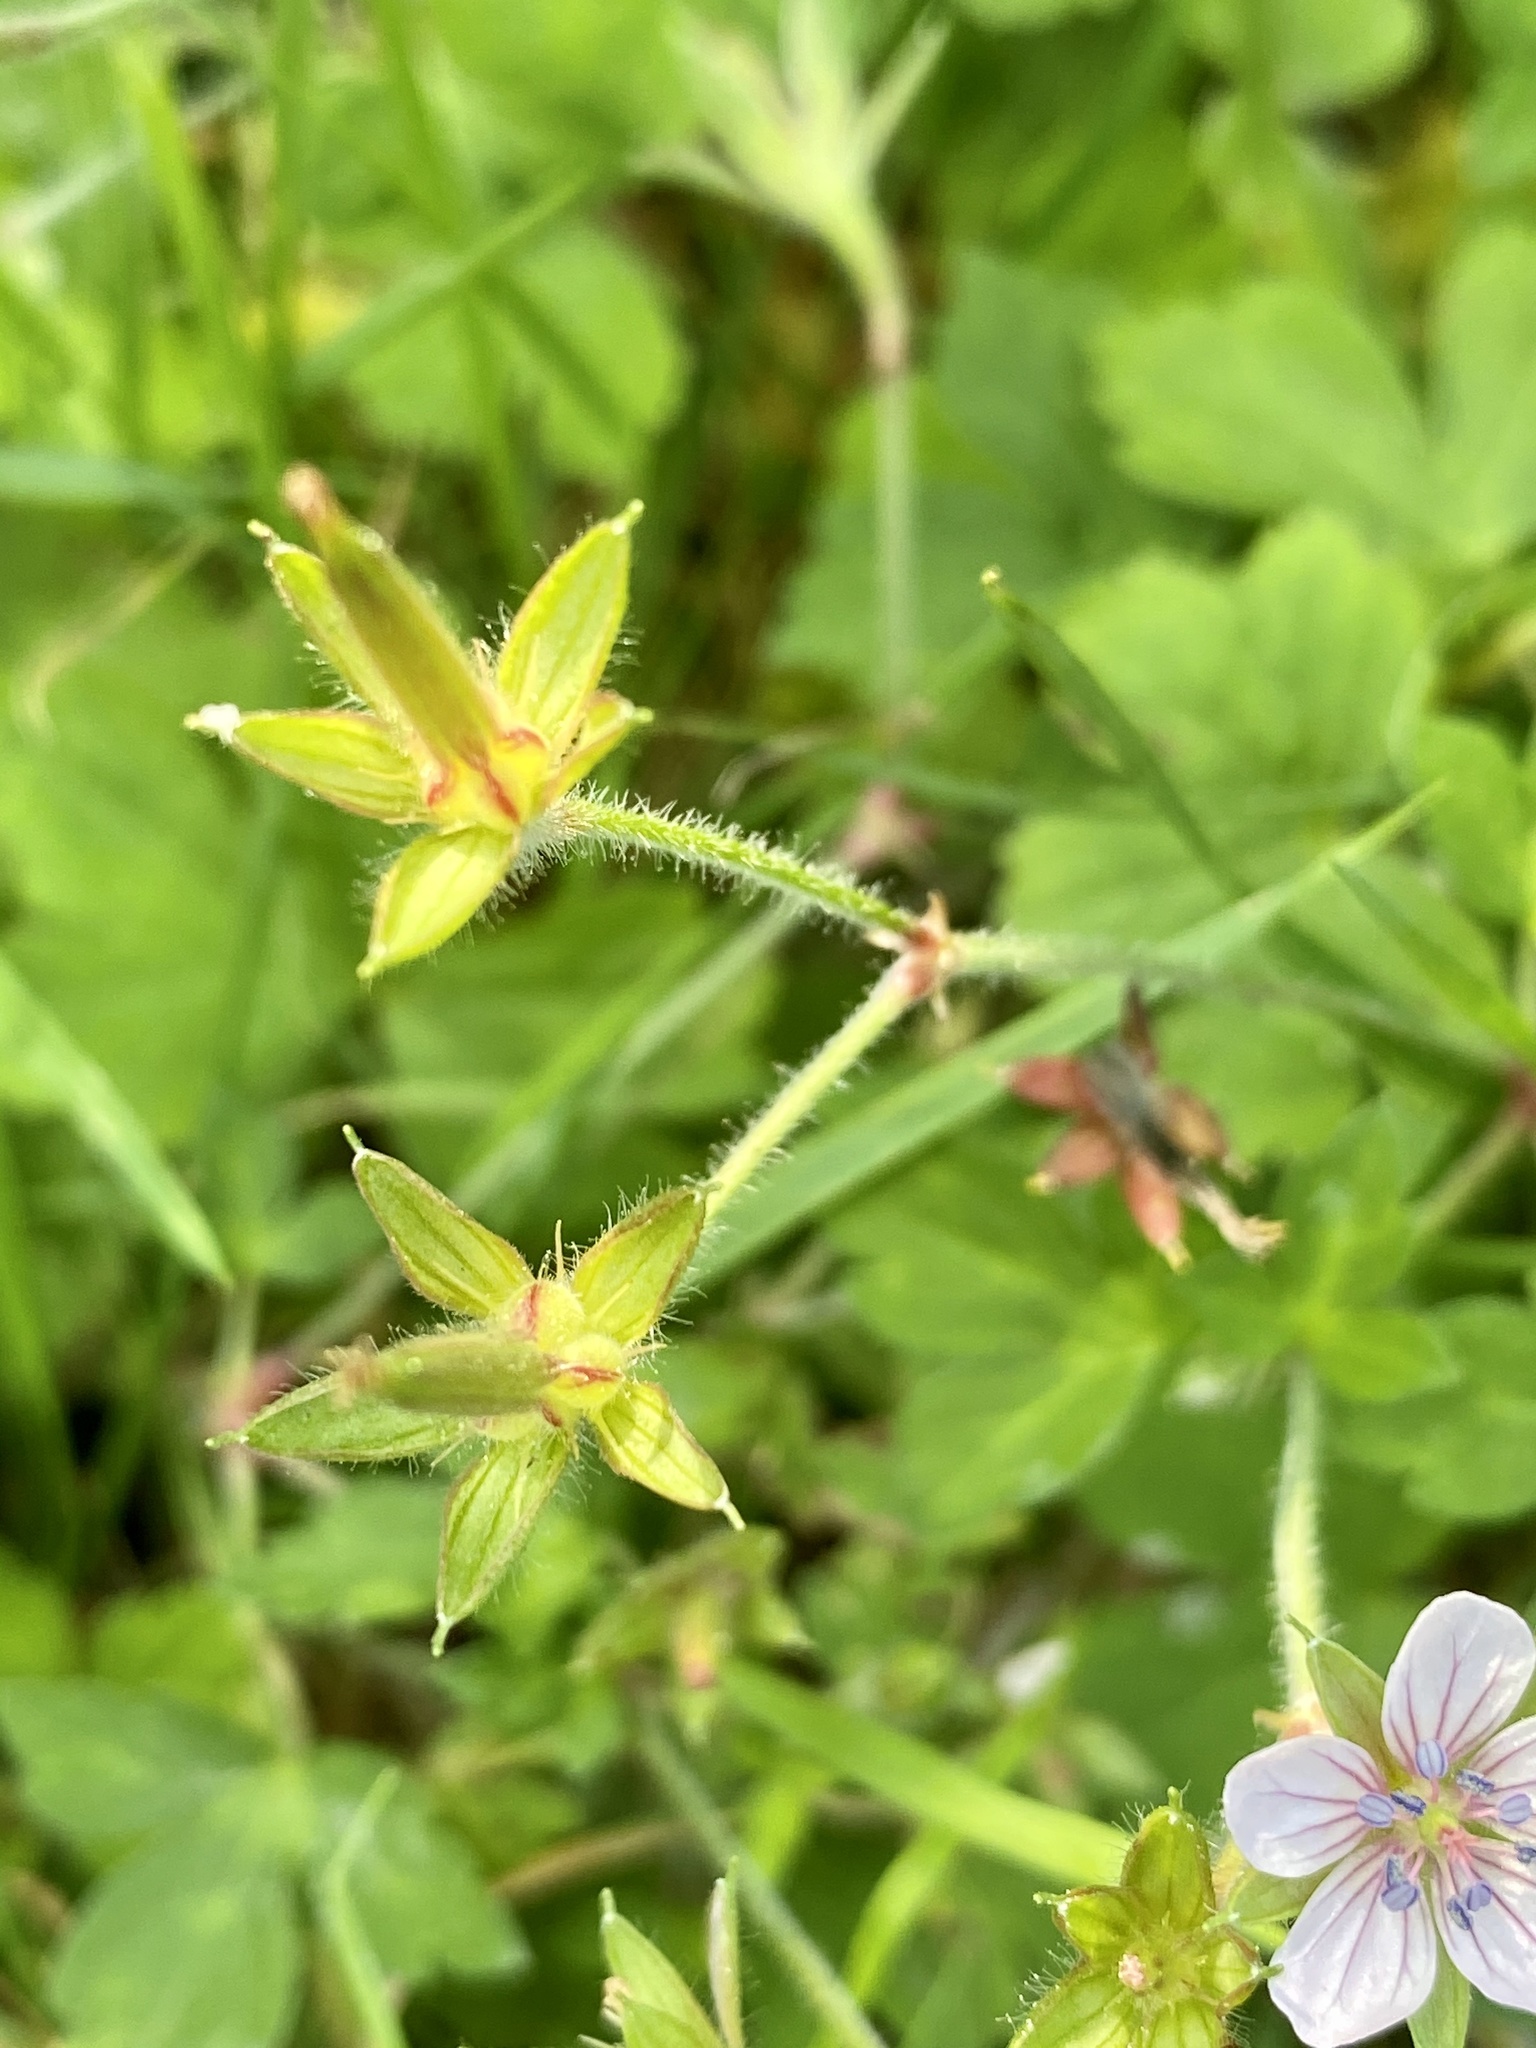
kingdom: Plantae
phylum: Tracheophyta
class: Magnoliopsida
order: Geraniales
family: Geraniaceae
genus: Geranium
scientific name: Geranium thunbergii
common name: Dewdrop crane's-bill
